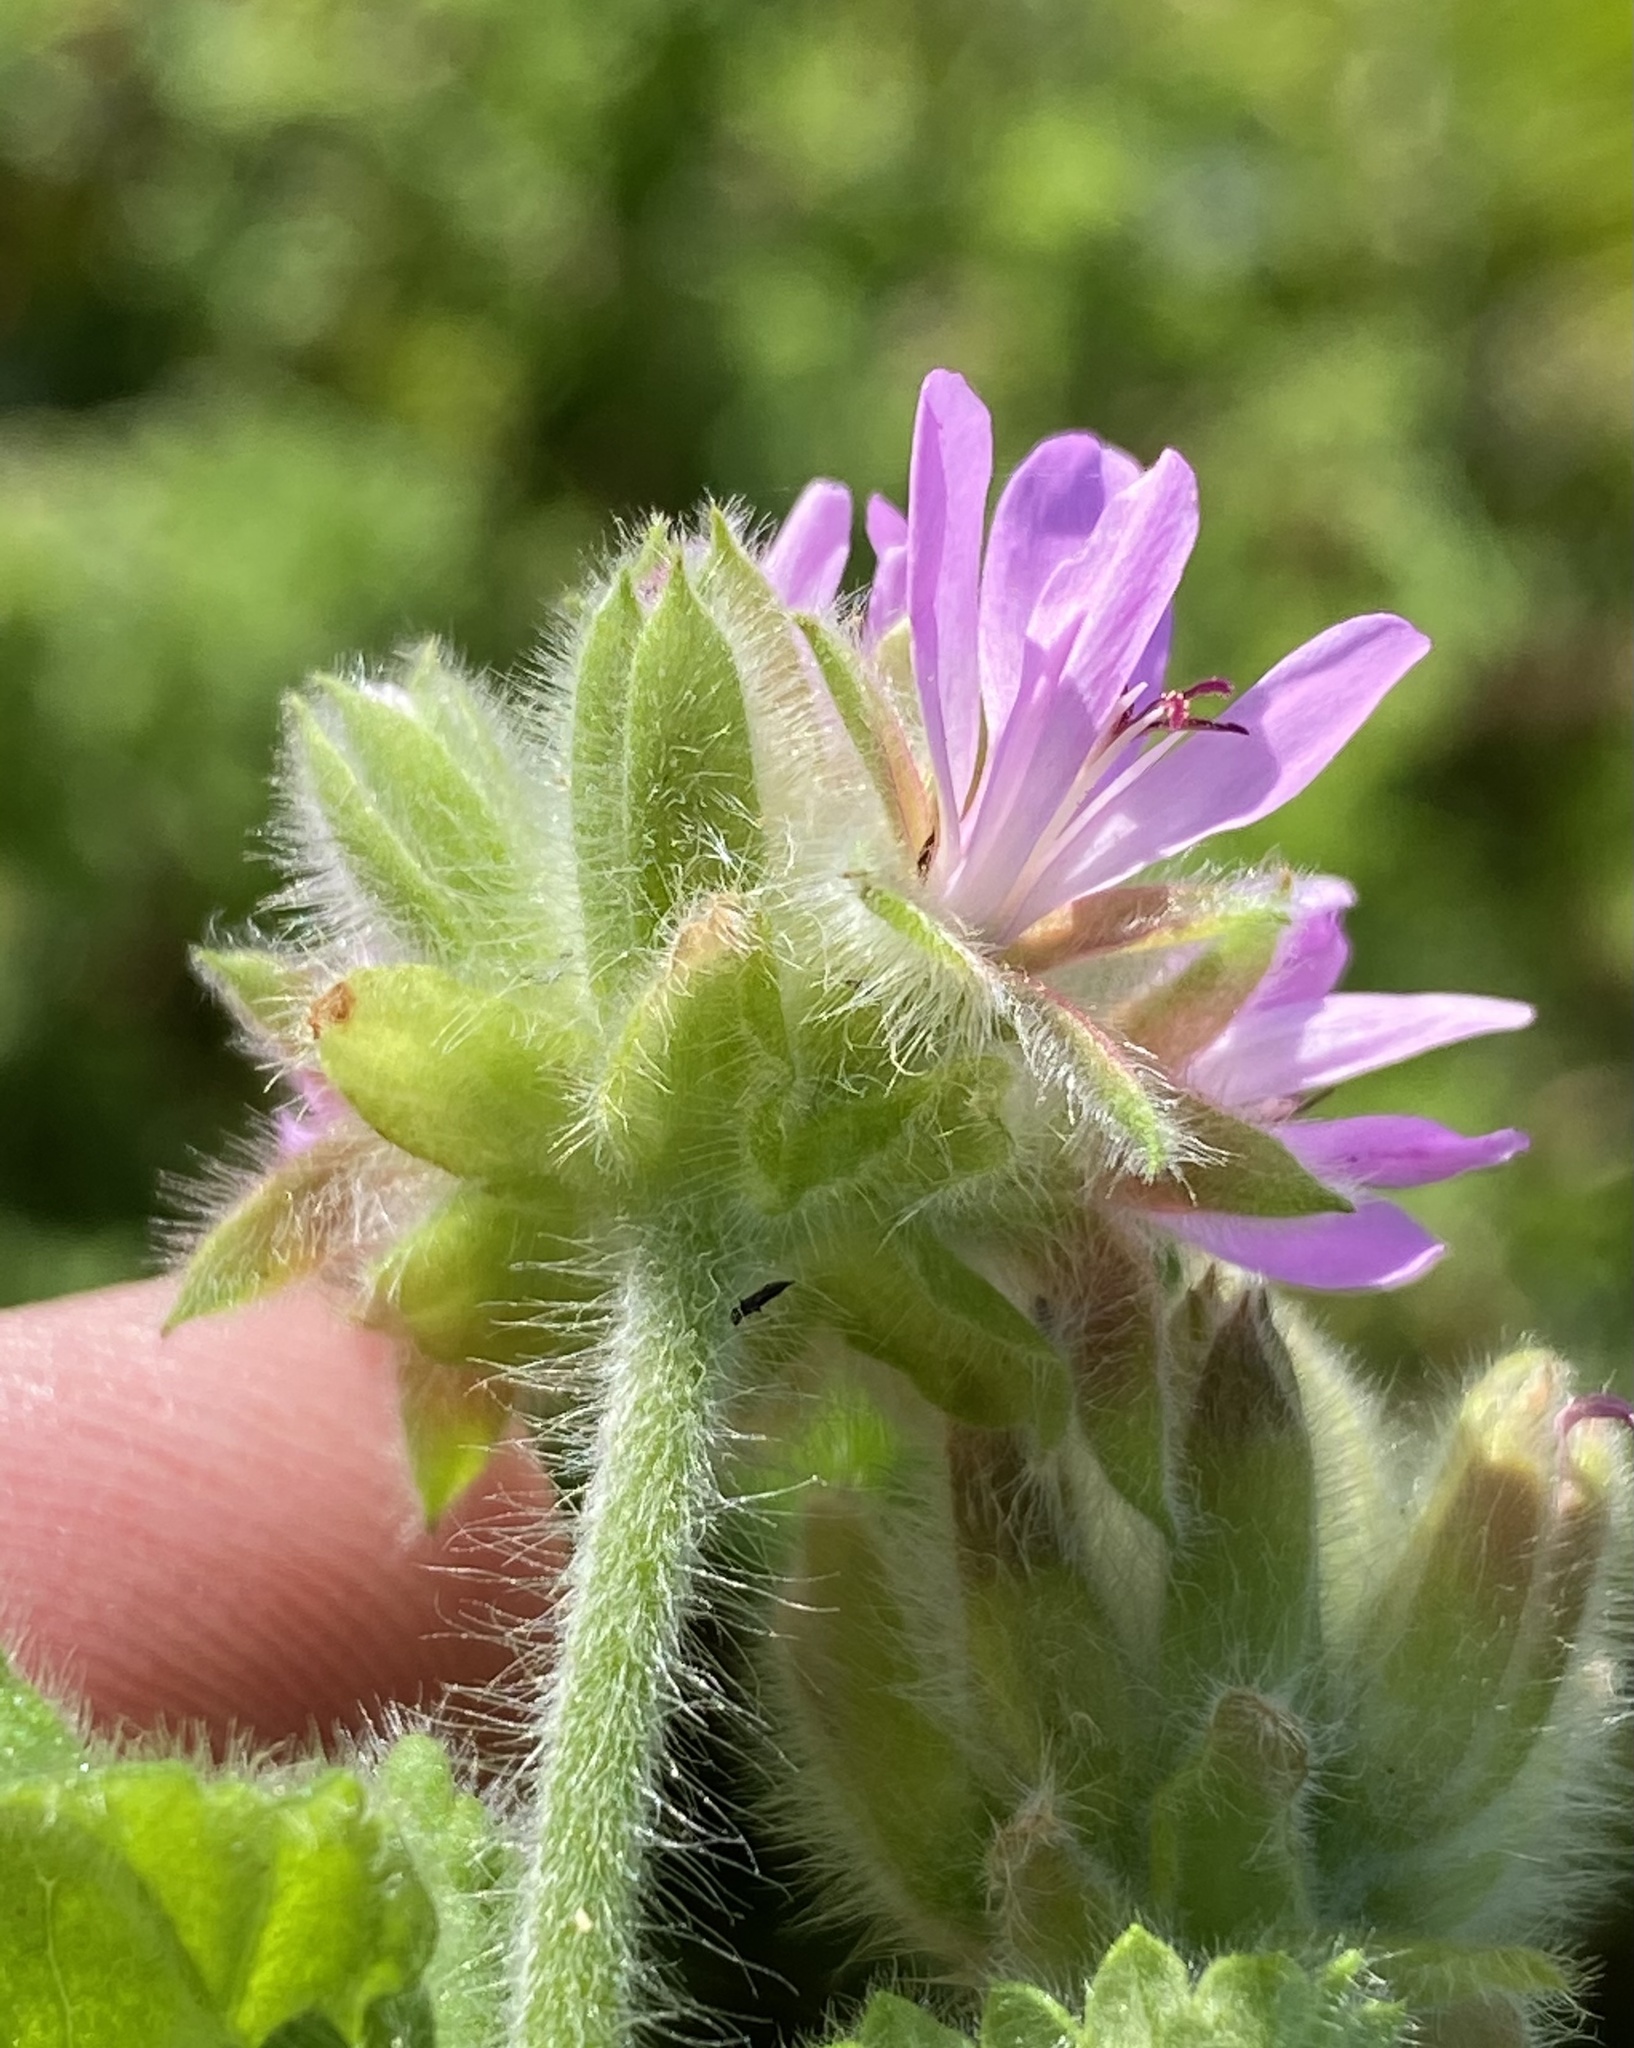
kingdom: Plantae
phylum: Tracheophyta
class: Magnoliopsida
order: Geraniales
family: Geraniaceae
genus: Pelargonium
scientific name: Pelargonium capitatum
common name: Rose scented geranium
